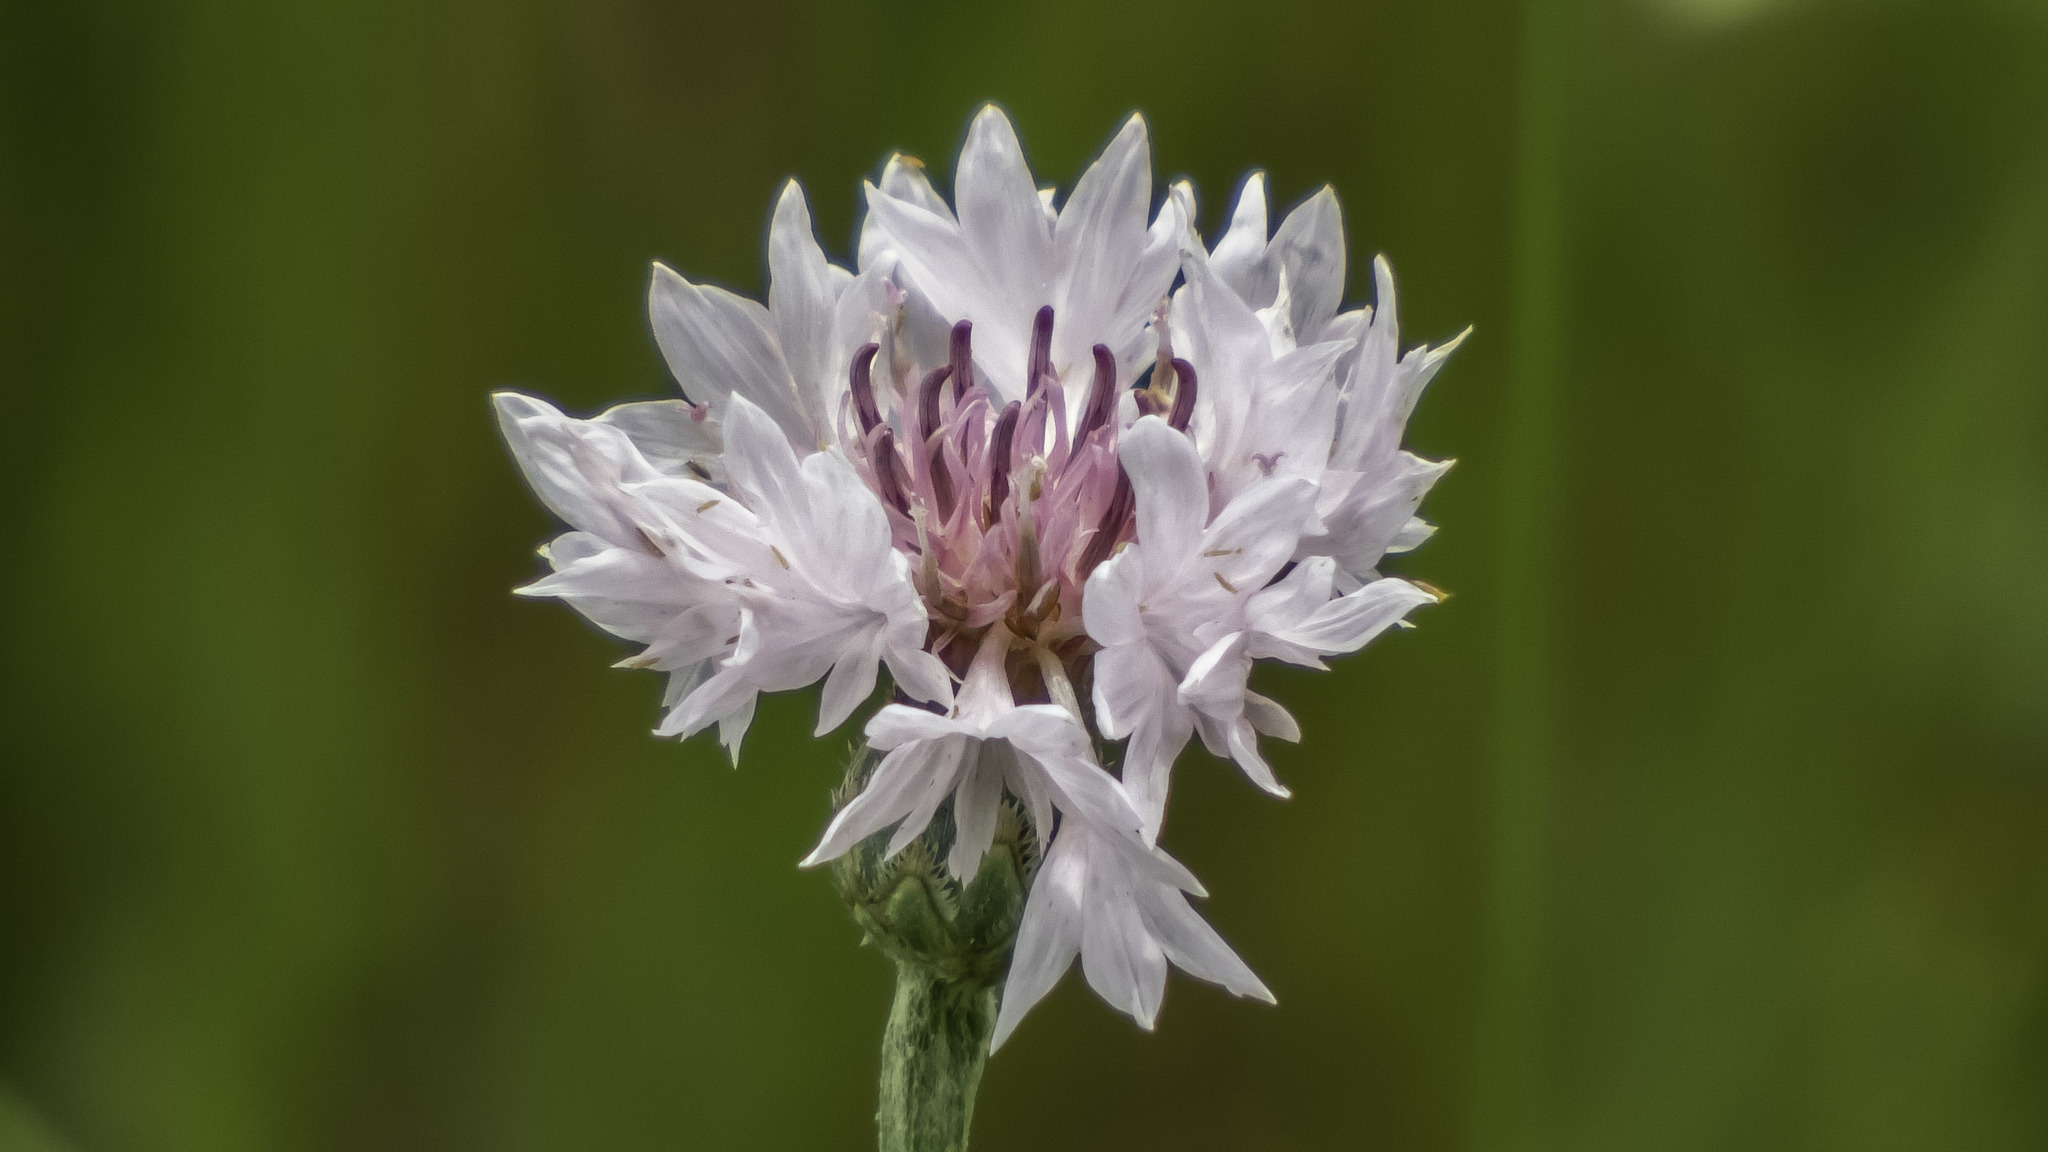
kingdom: Plantae
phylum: Tracheophyta
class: Magnoliopsida
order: Asterales
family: Asteraceae
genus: Centaurea
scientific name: Centaurea cyanus
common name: Cornflower
